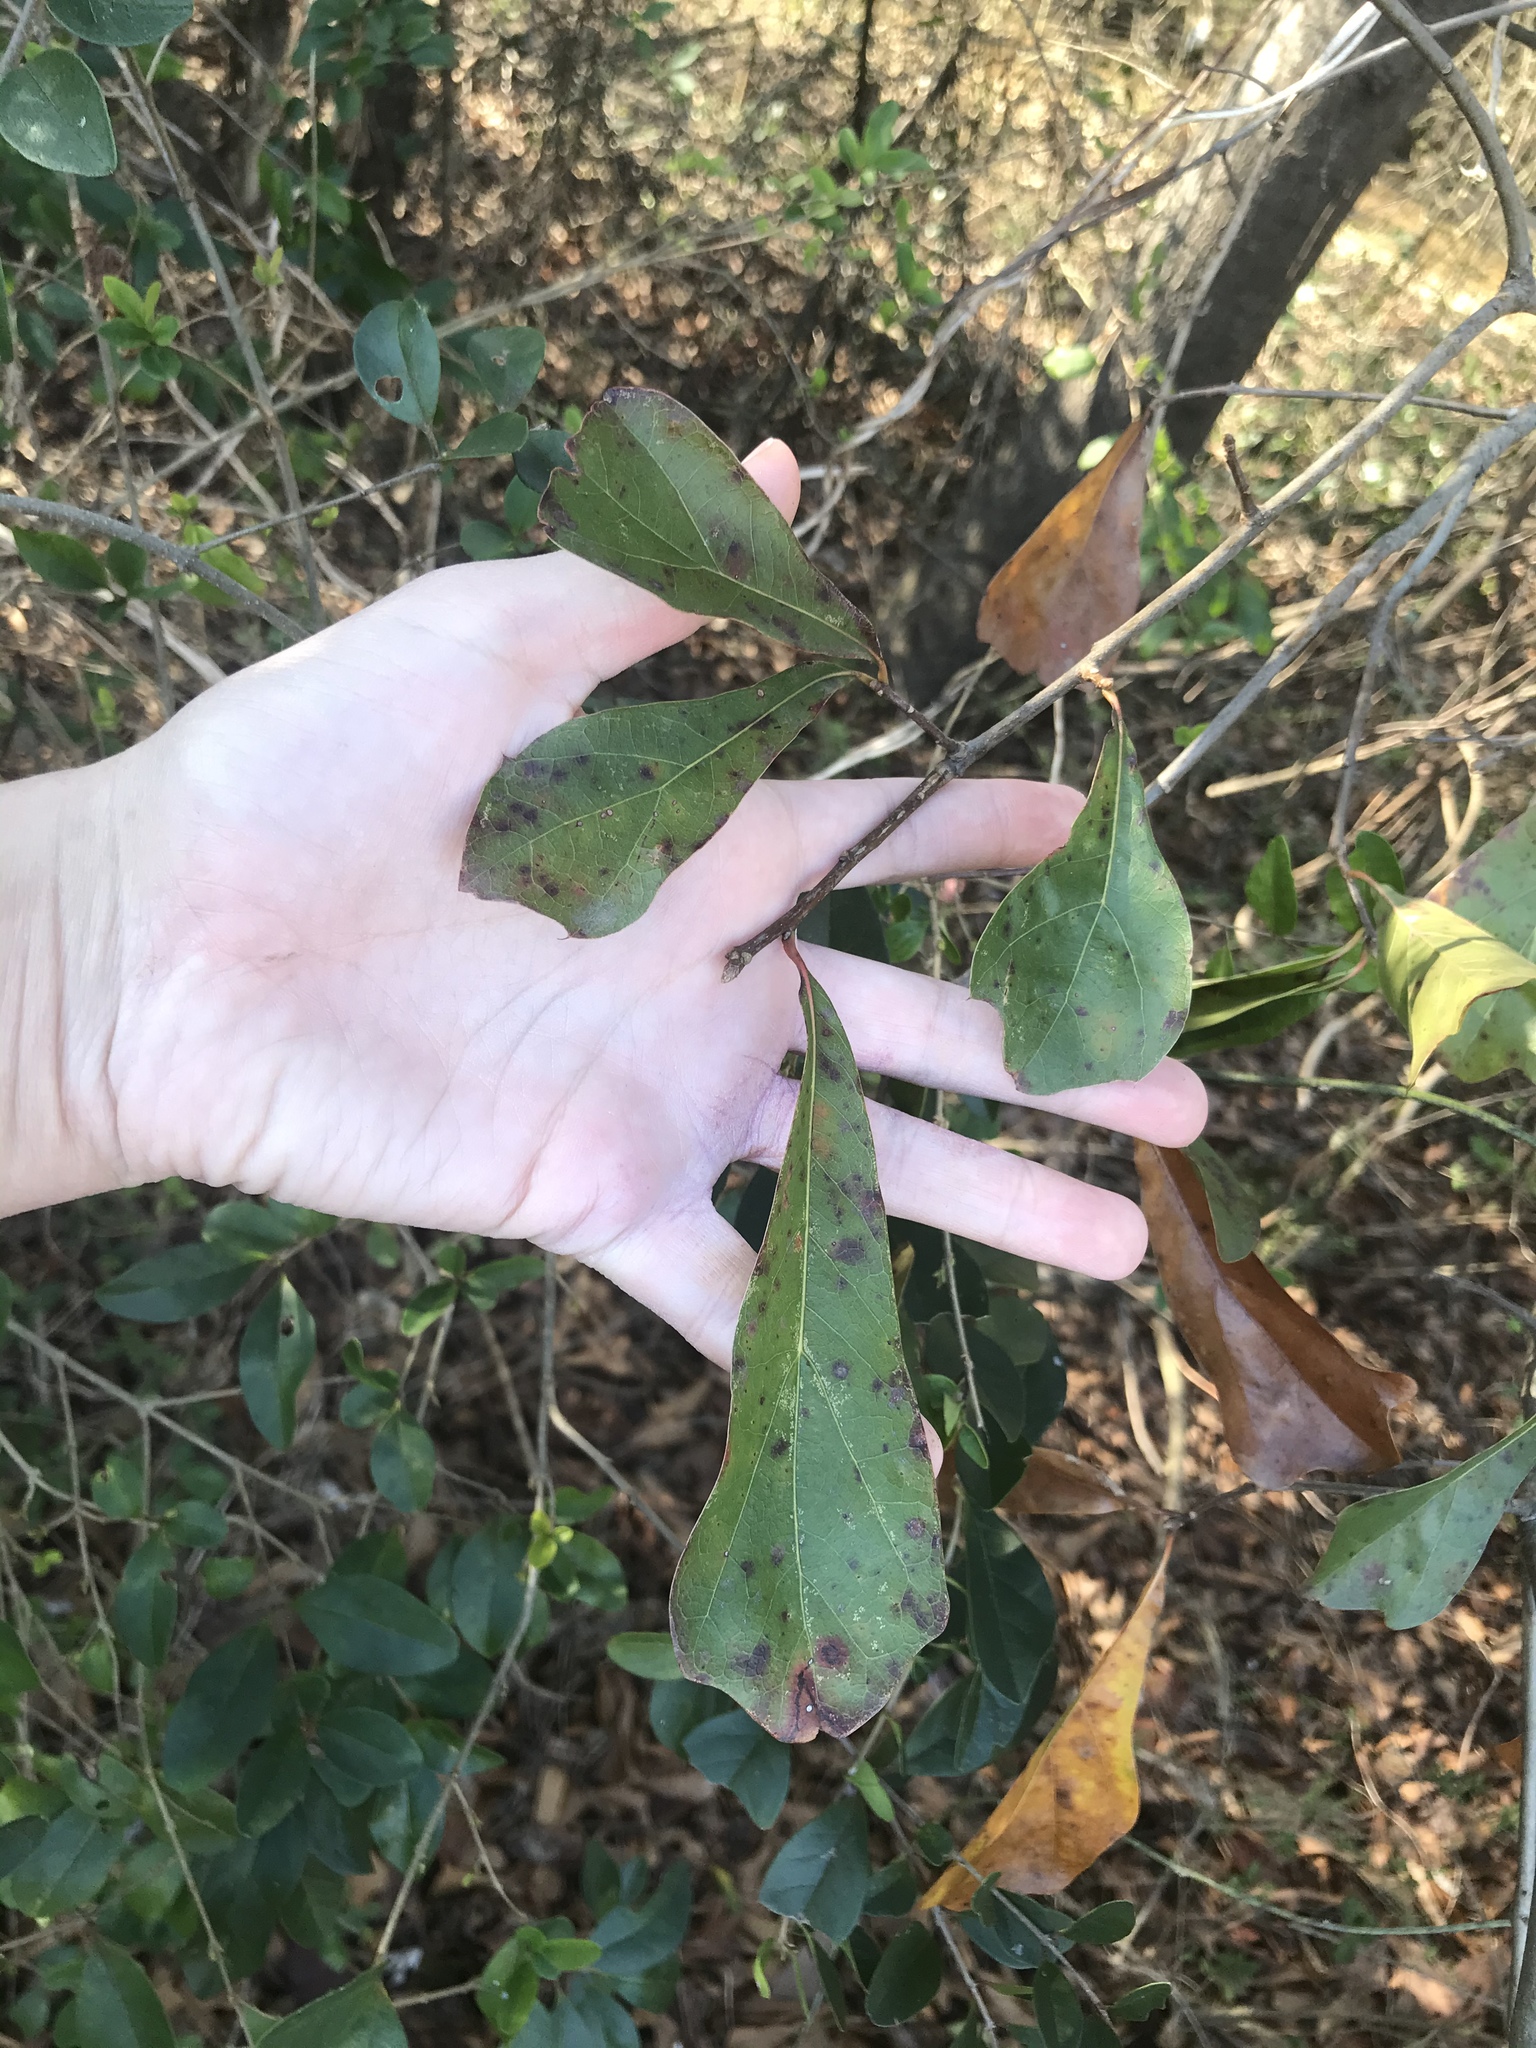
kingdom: Plantae
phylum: Tracheophyta
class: Magnoliopsida
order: Fagales
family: Fagaceae
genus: Quercus
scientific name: Quercus nigra
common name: Water oak
